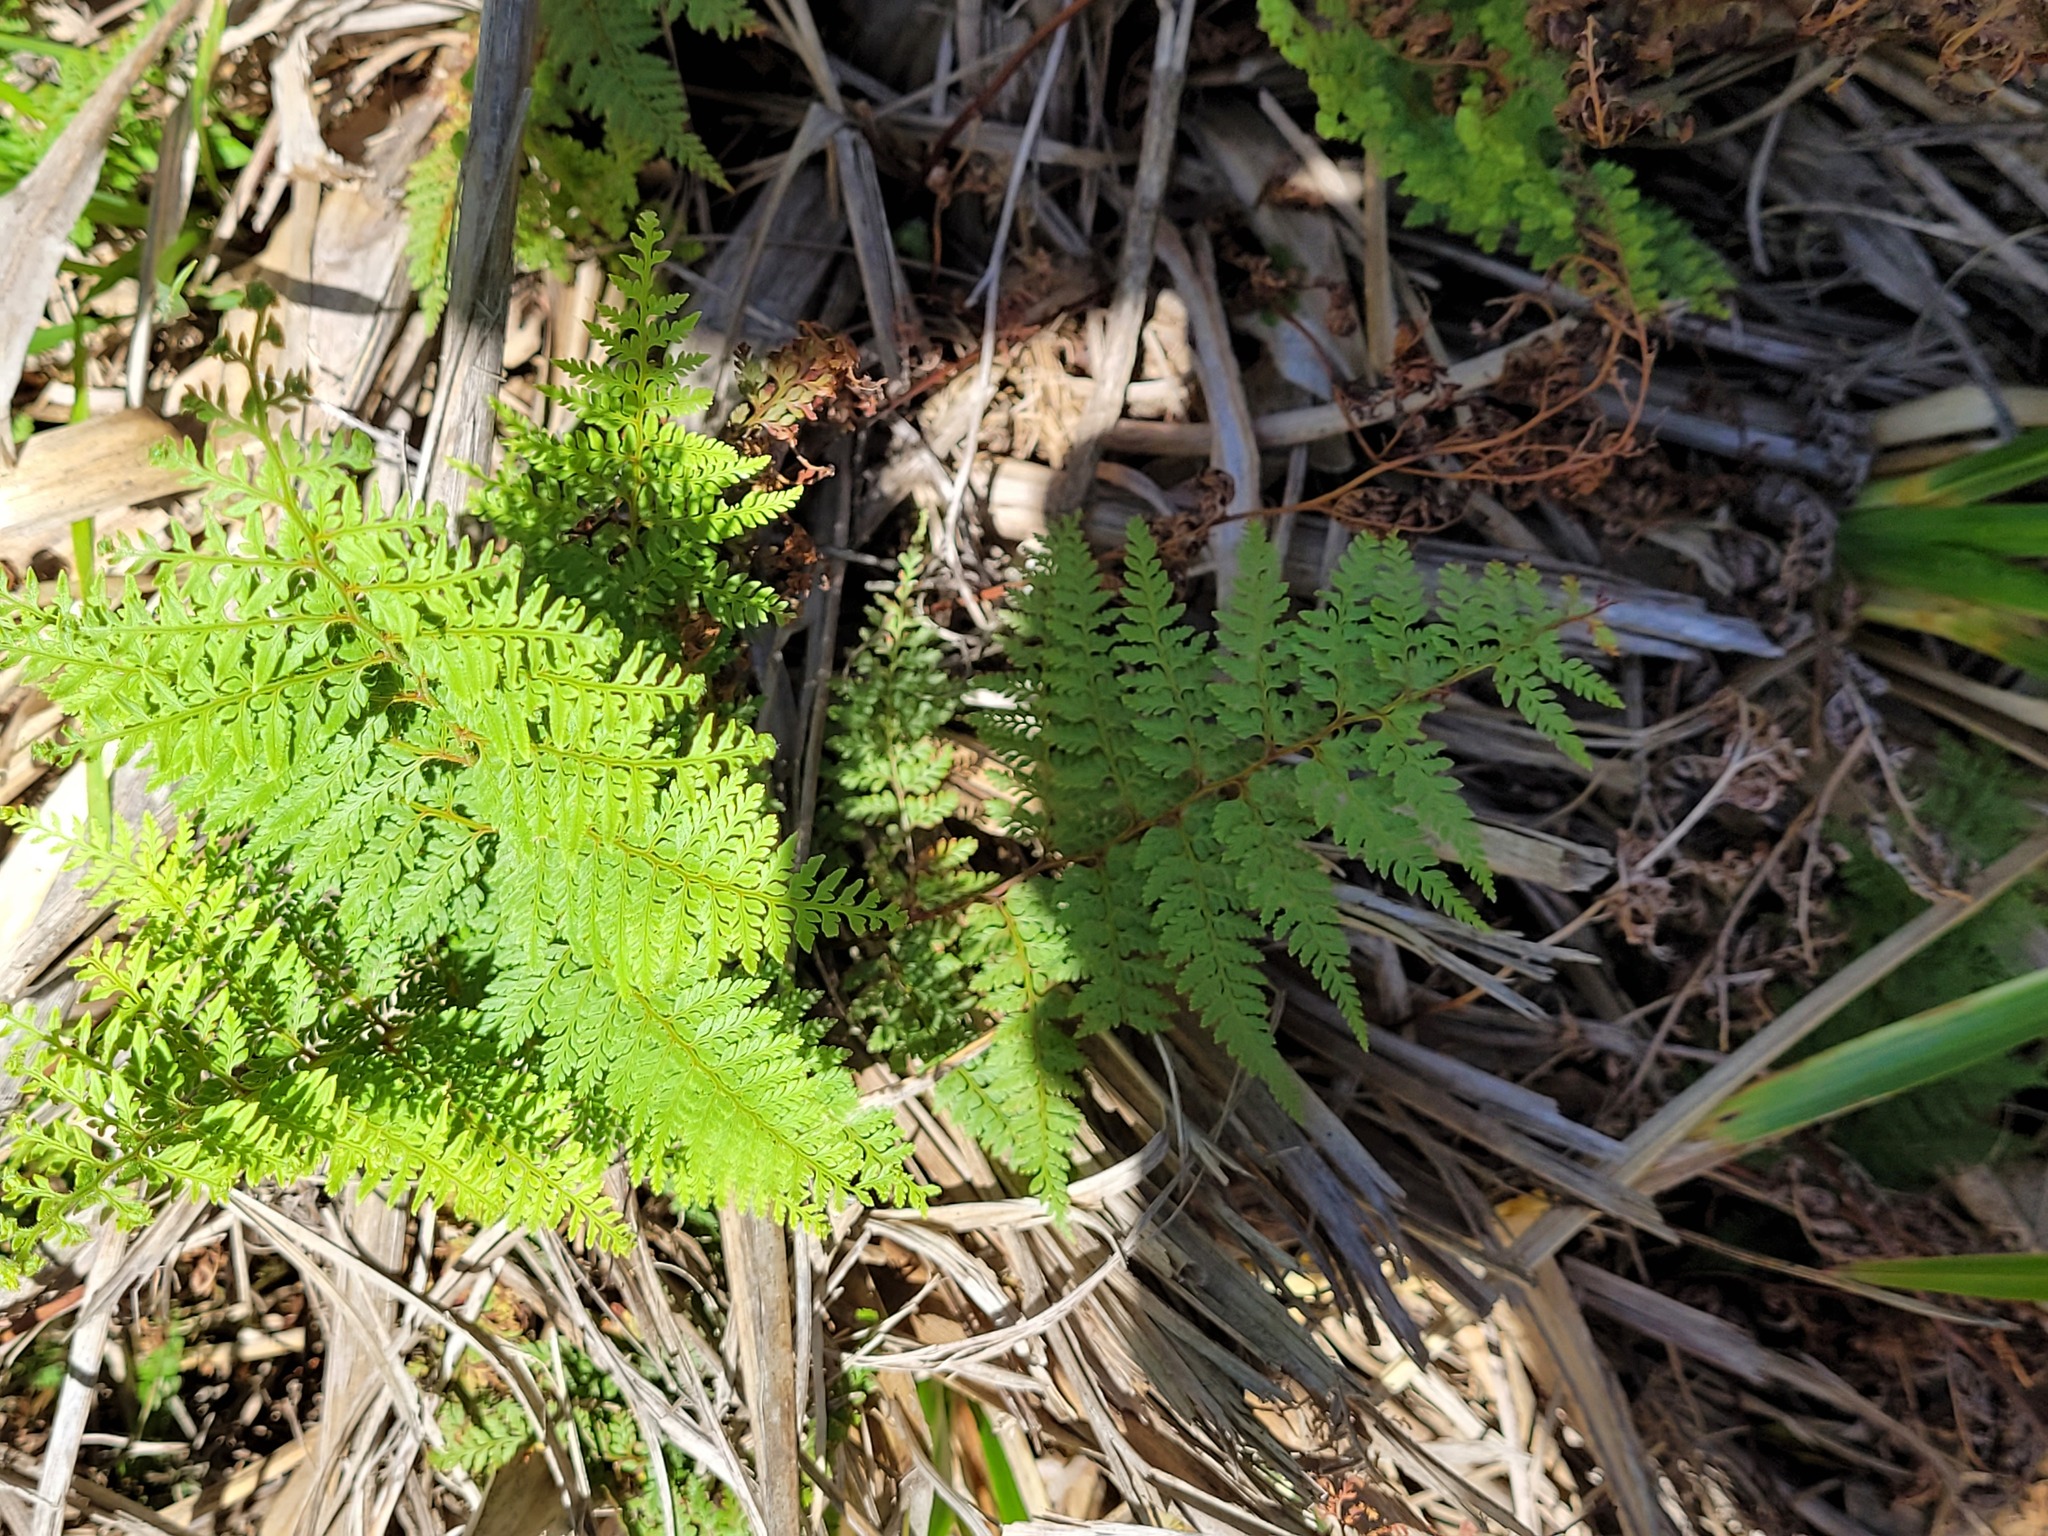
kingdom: Plantae
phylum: Tracheophyta
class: Polypodiopsida
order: Polypodiales
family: Dennstaedtiaceae
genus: Paesia
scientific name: Paesia scaberula
